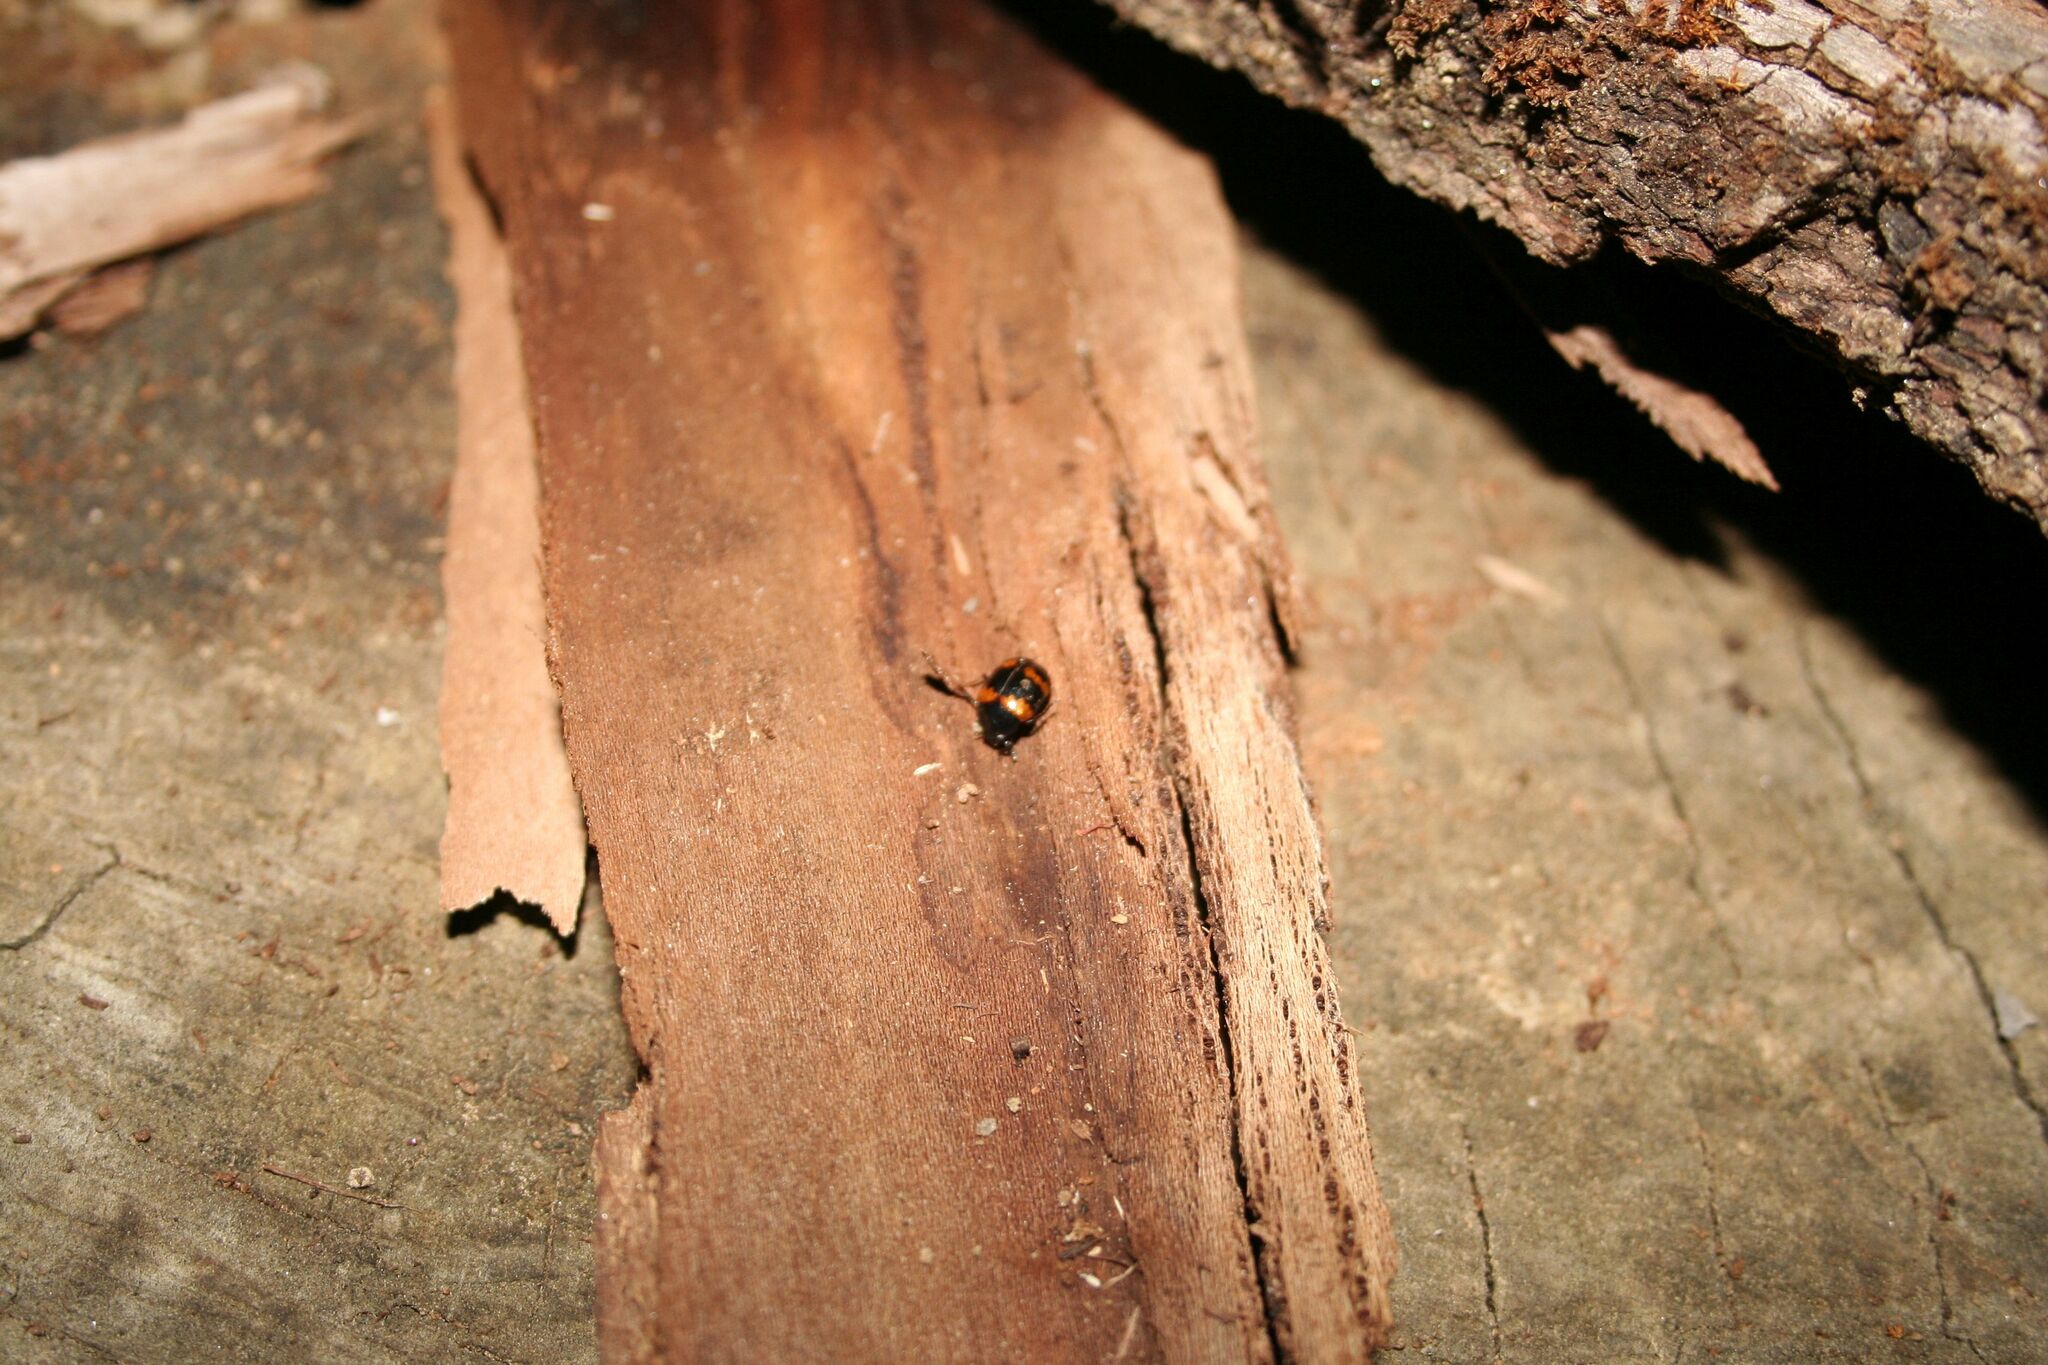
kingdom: Animalia
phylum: Arthropoda
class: Insecta
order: Coleoptera
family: Tenebrionidae
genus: Diaperis
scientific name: Diaperis boleti
